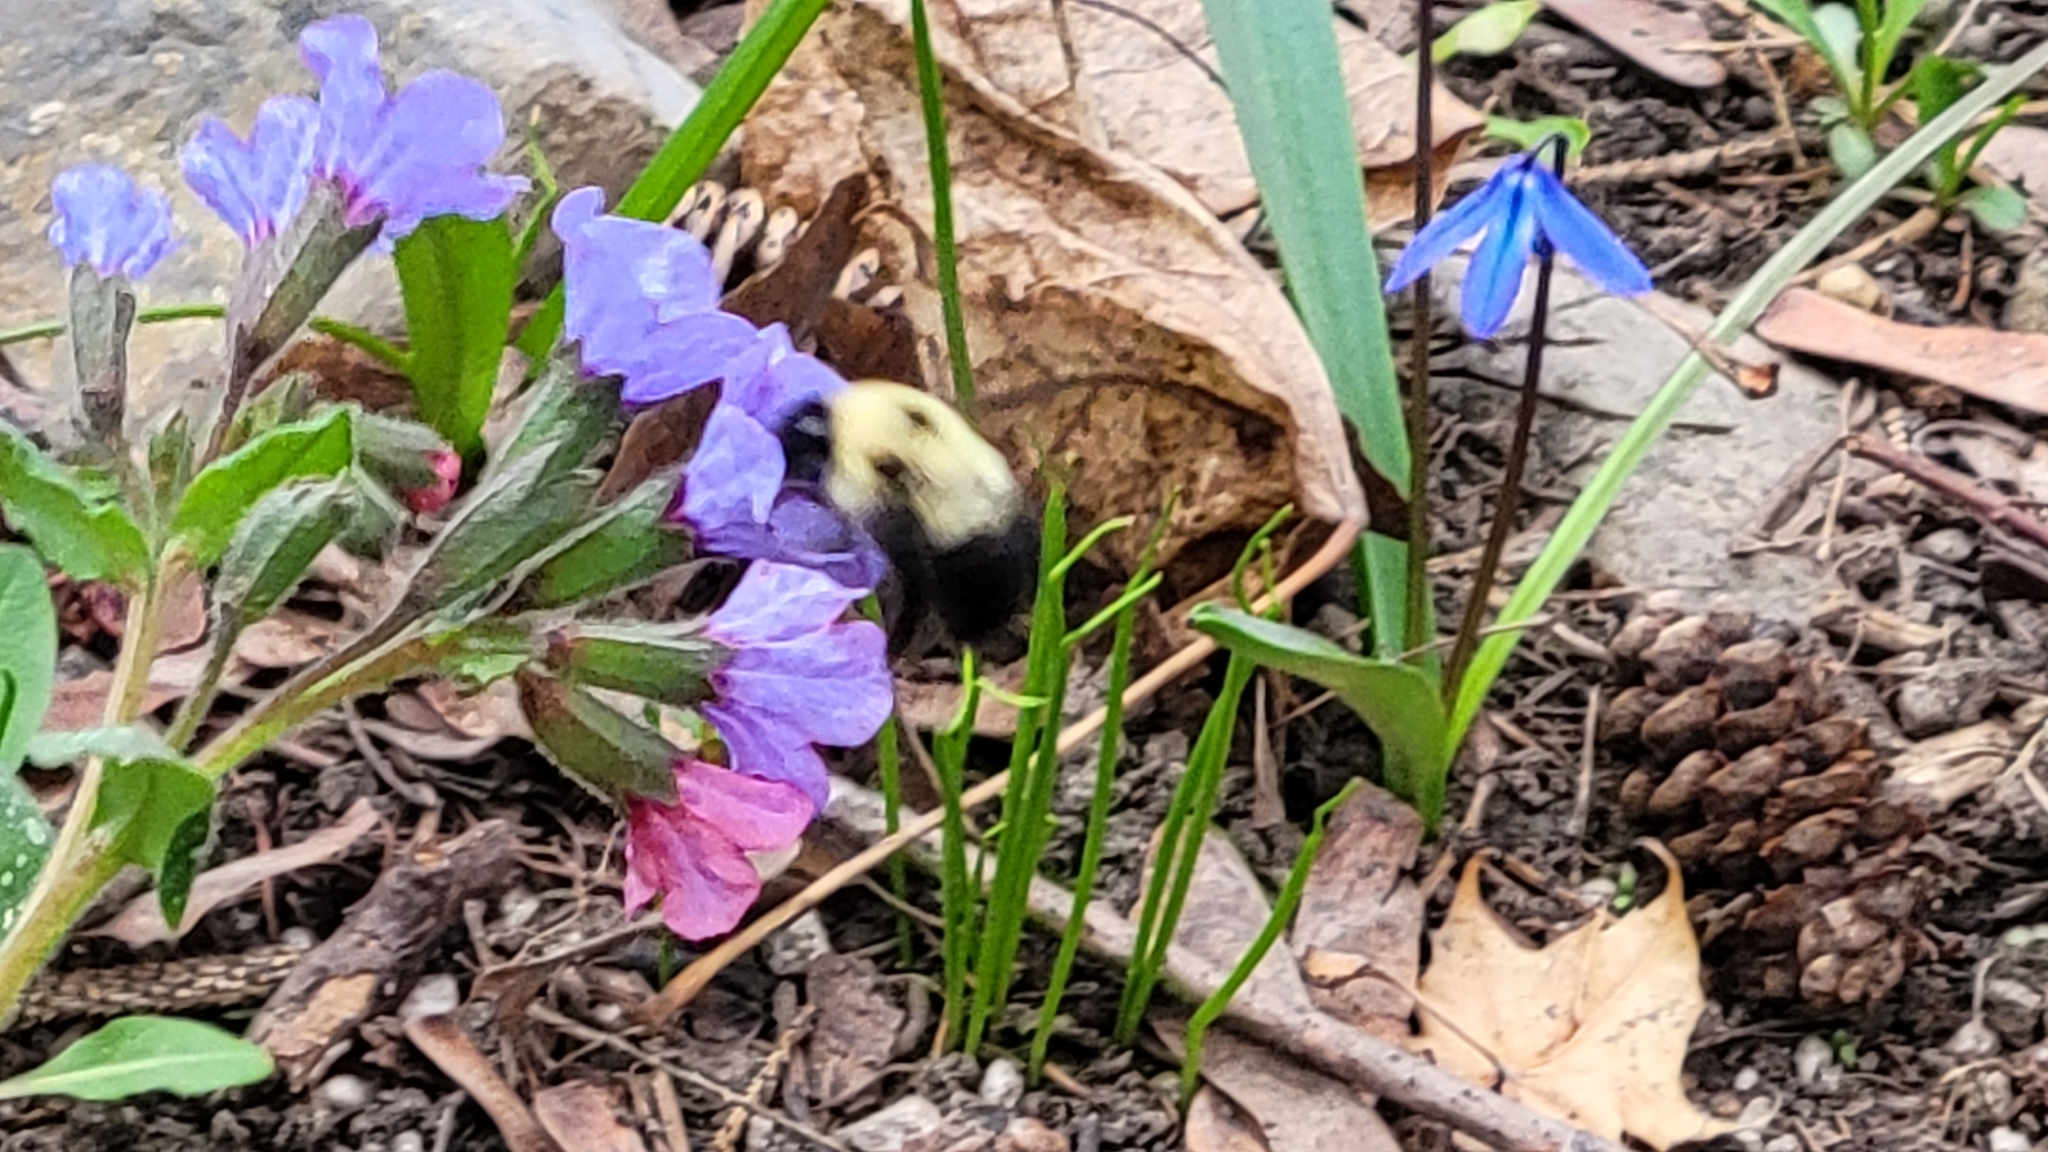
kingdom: Animalia
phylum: Arthropoda
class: Insecta
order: Hymenoptera
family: Apidae
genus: Bombus
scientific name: Bombus bimaculatus
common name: Two-spotted bumble bee
